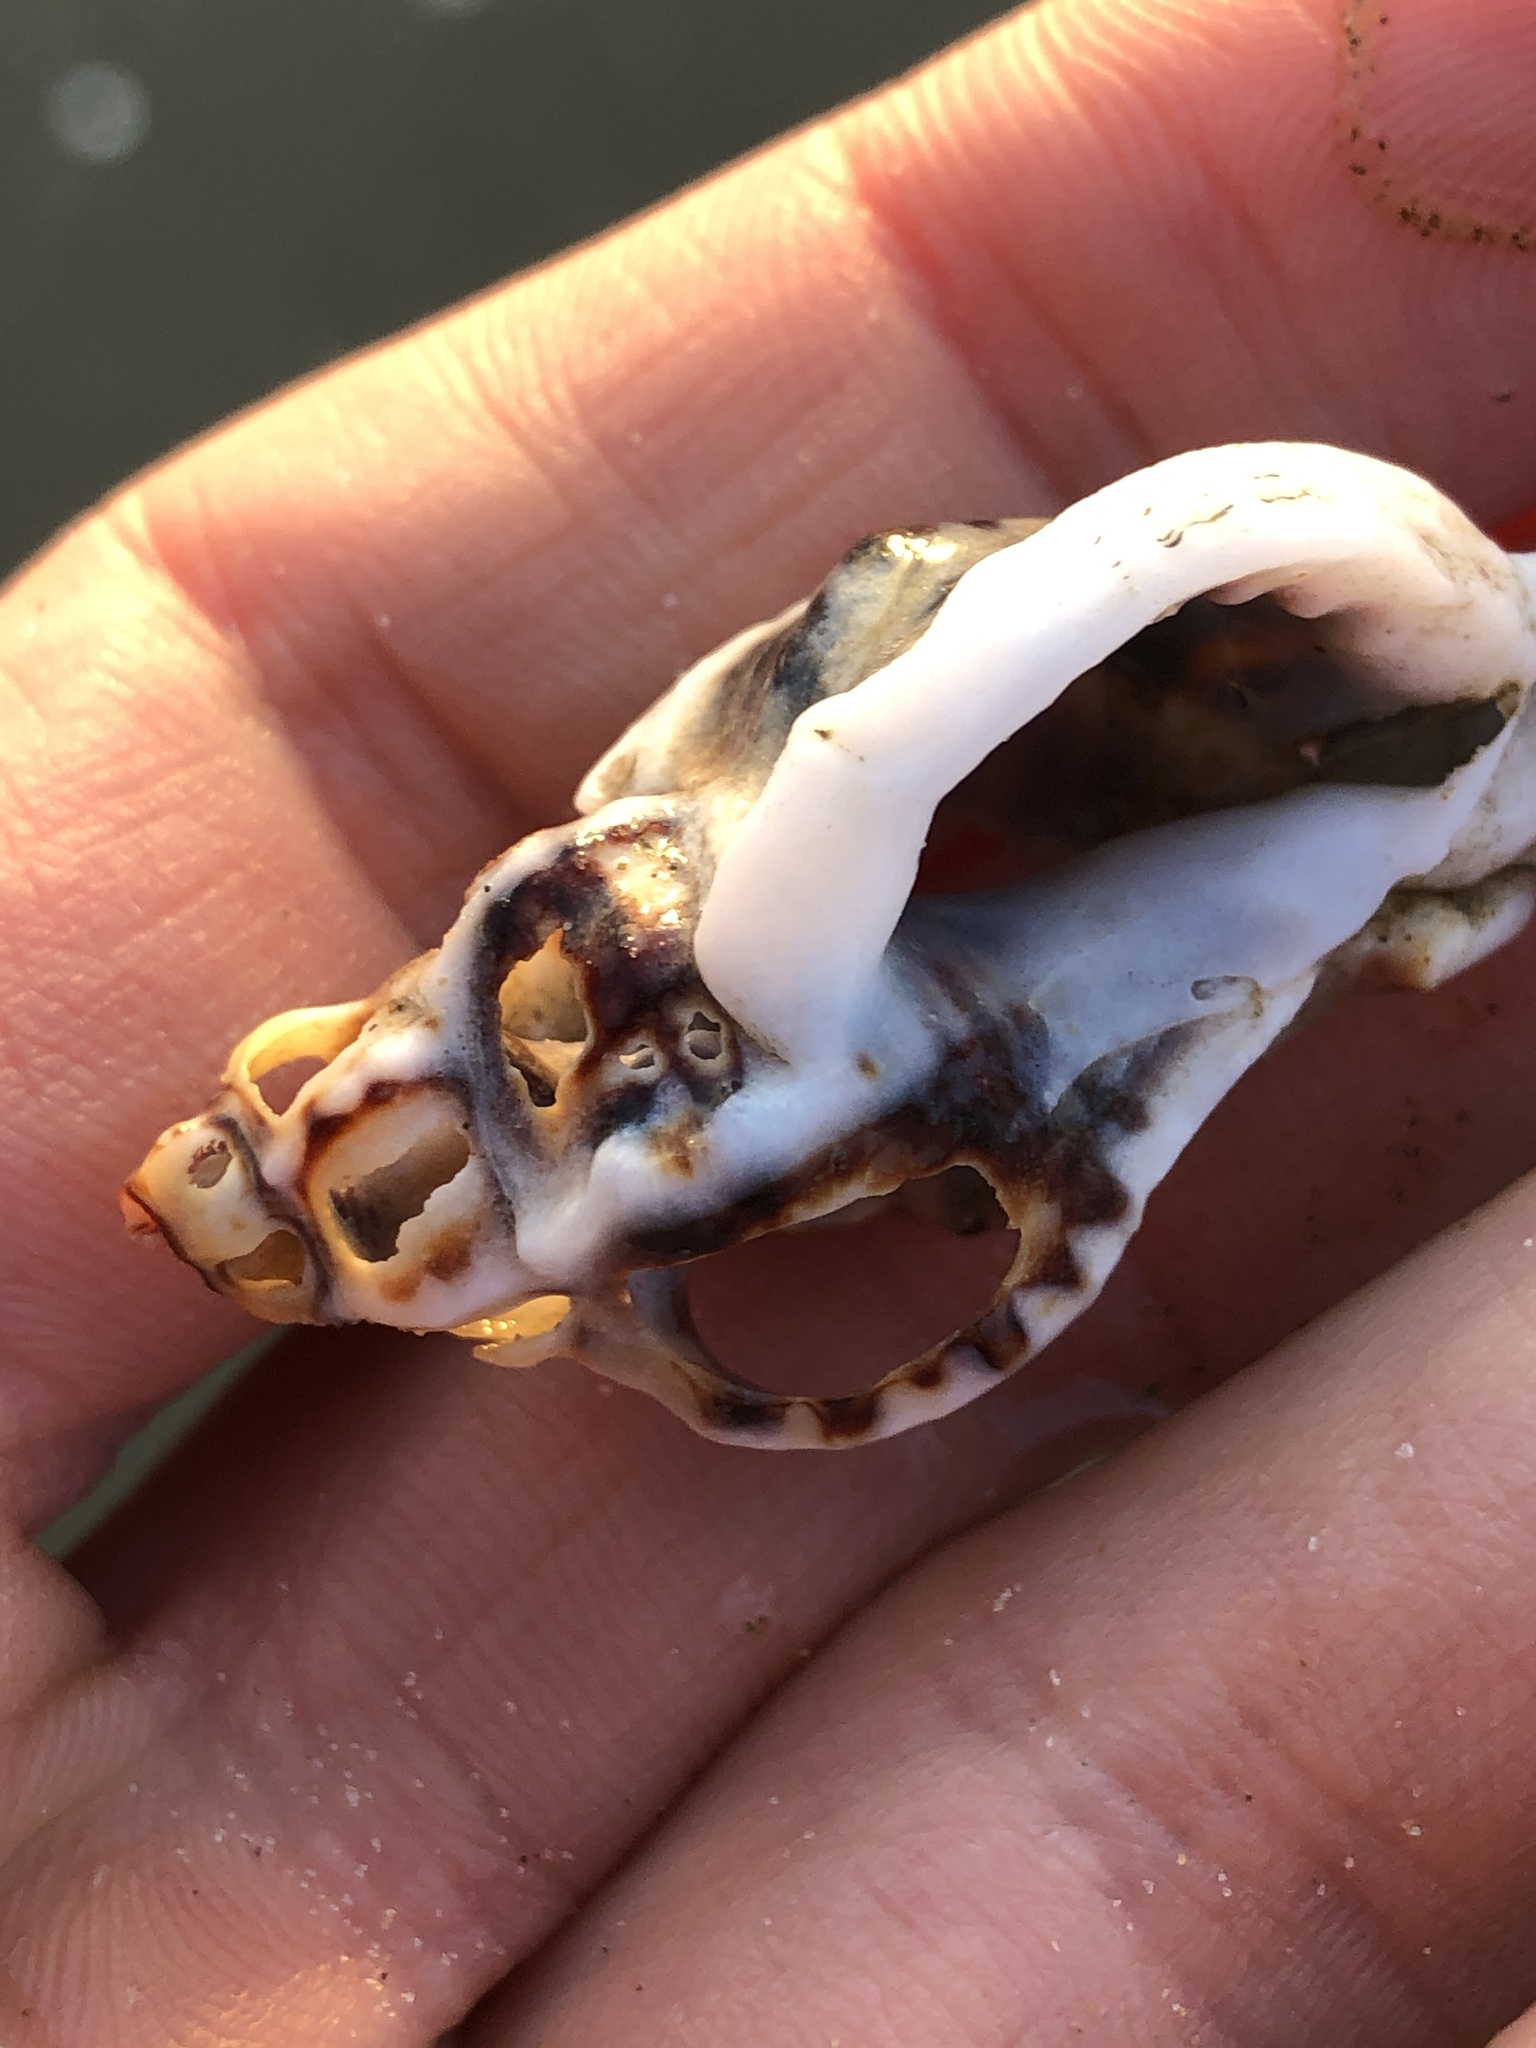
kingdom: Animalia
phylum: Mollusca
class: Gastropoda
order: Neogastropoda
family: Muricidae
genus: Ceratostoma
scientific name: Ceratostoma rorifluum
